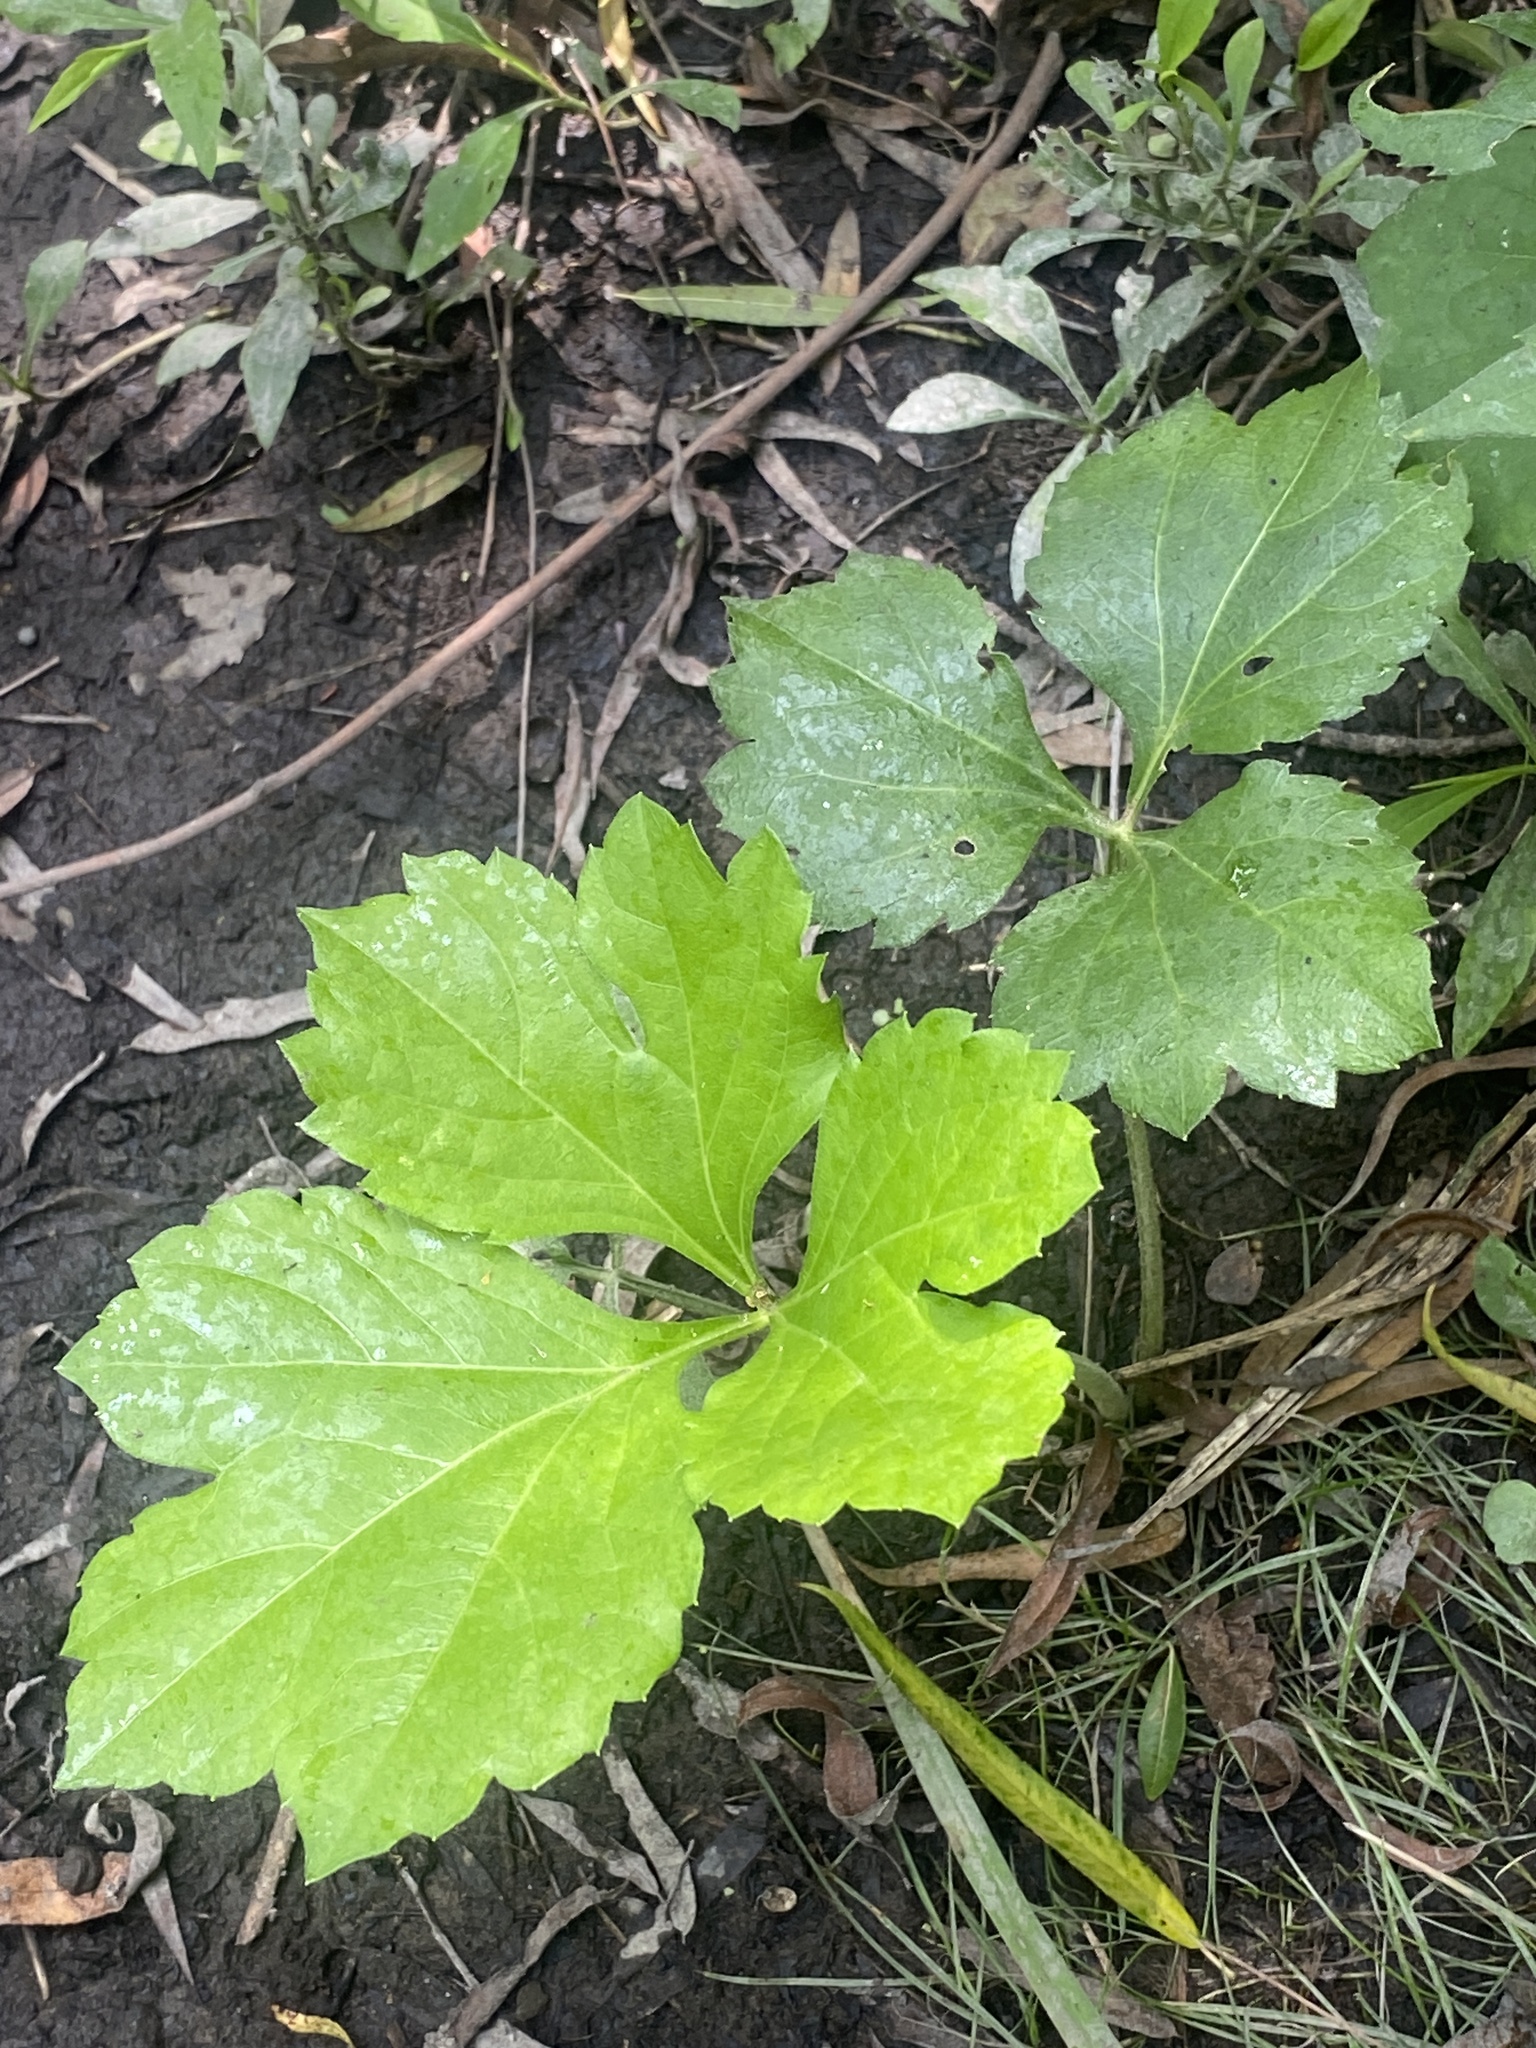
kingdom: Plantae
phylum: Tracheophyta
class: Magnoliopsida
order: Asterales
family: Asteraceae
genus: Rudbeckia
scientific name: Rudbeckia laciniata
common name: Coneflower
